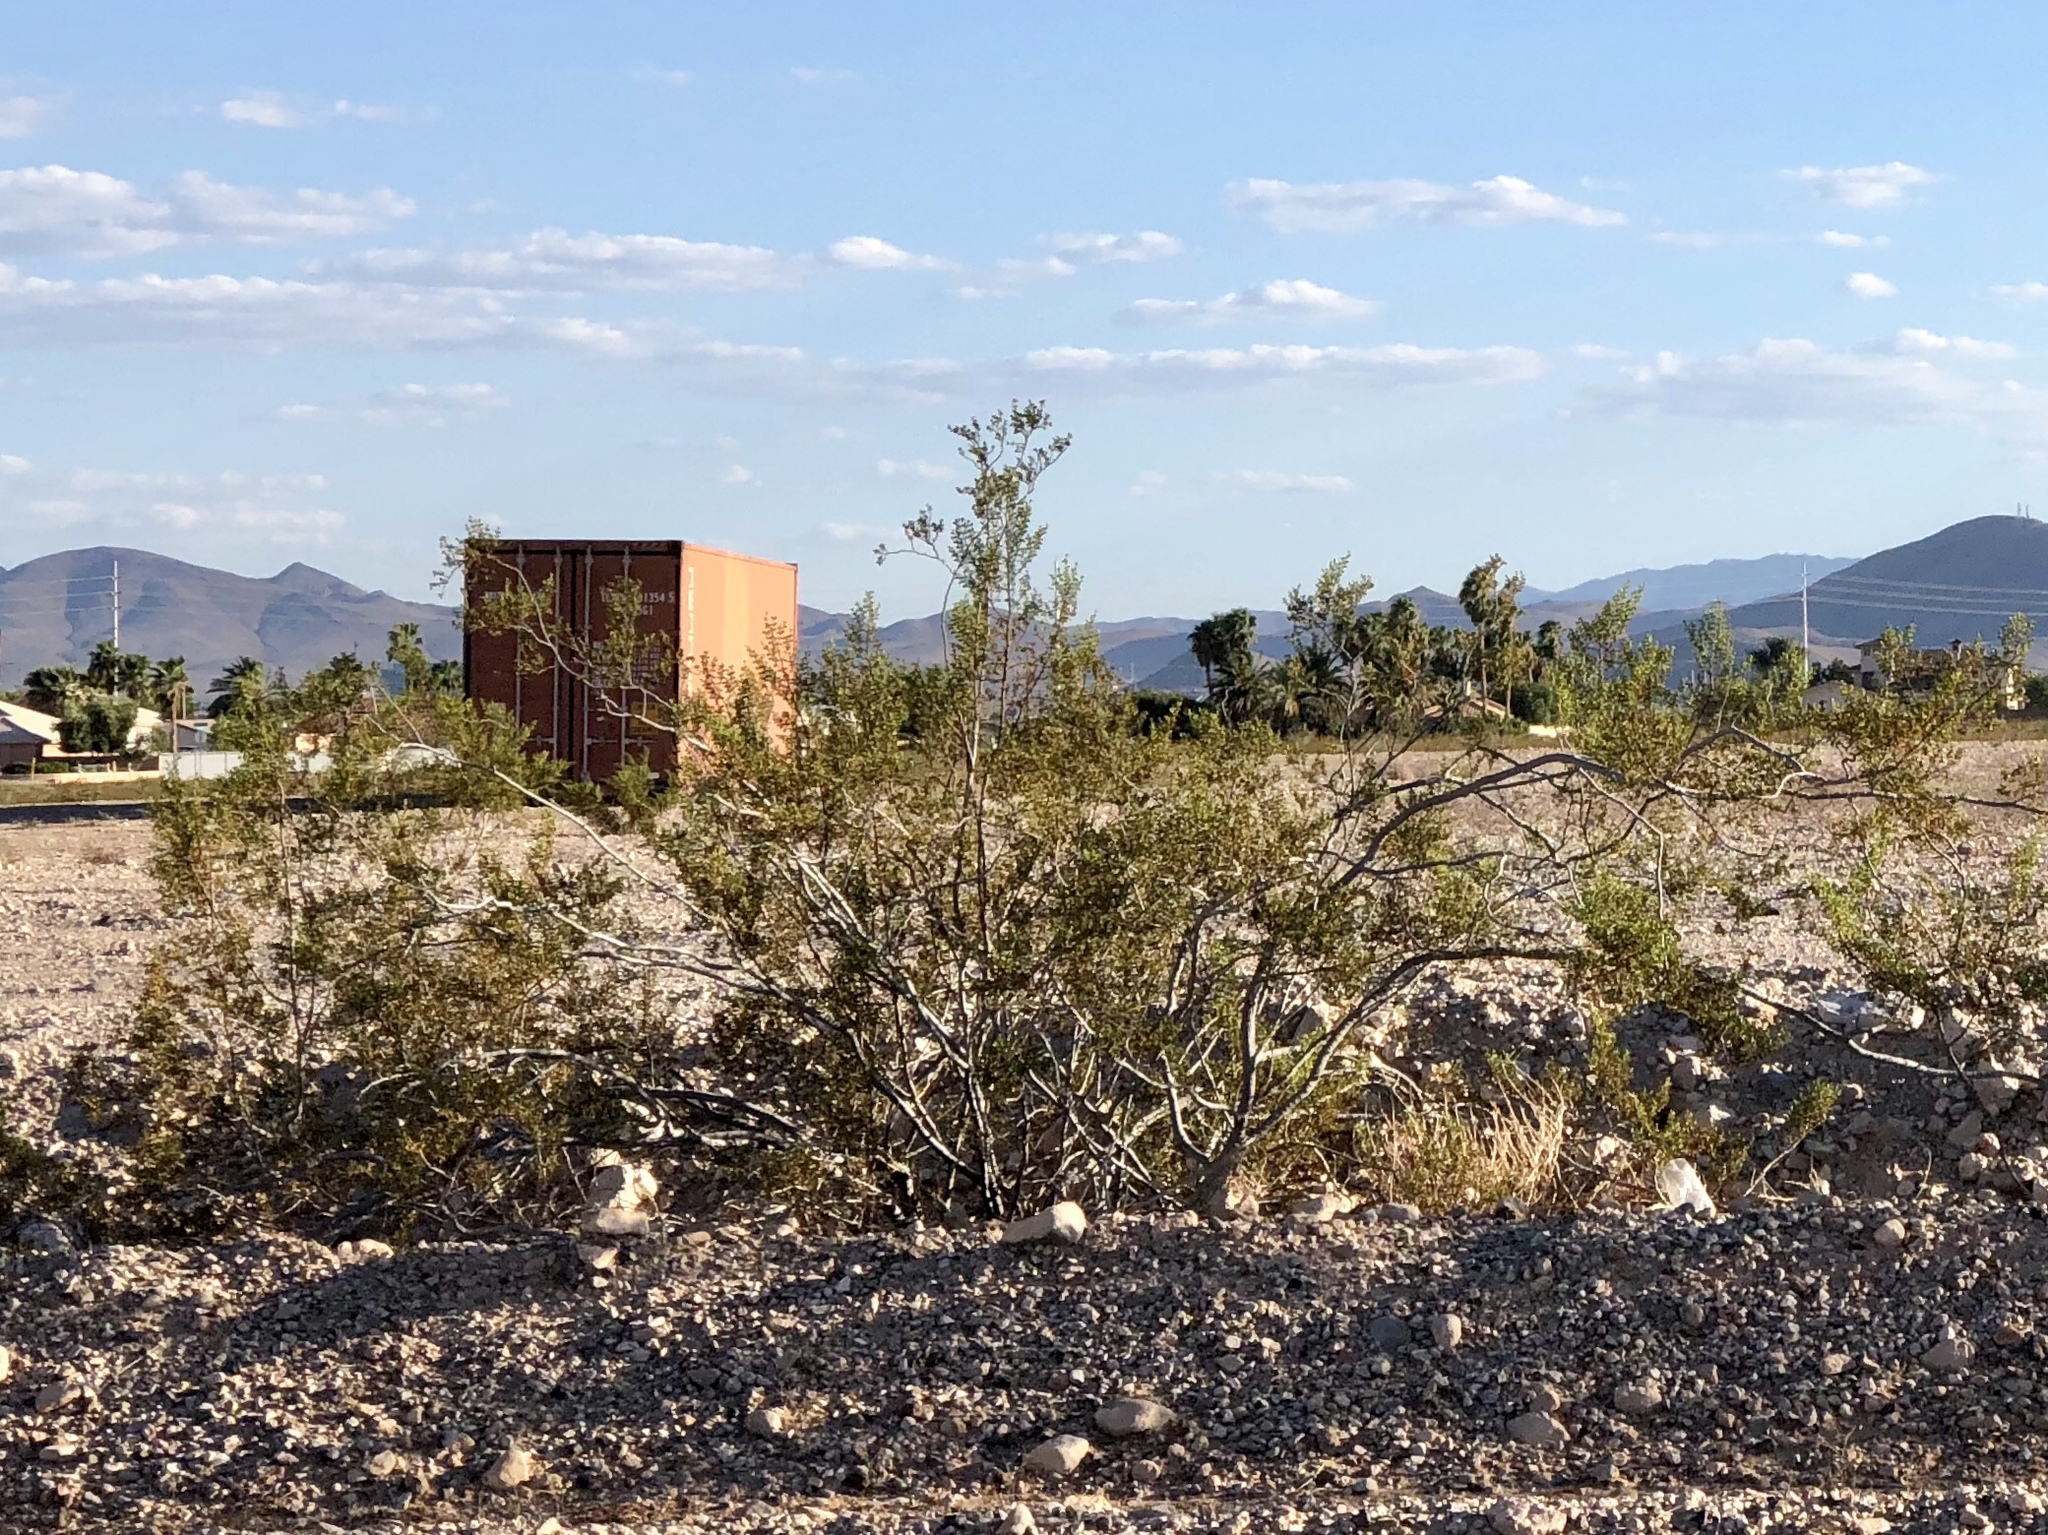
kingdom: Plantae
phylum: Tracheophyta
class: Magnoliopsida
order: Zygophyllales
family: Zygophyllaceae
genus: Larrea
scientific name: Larrea tridentata
